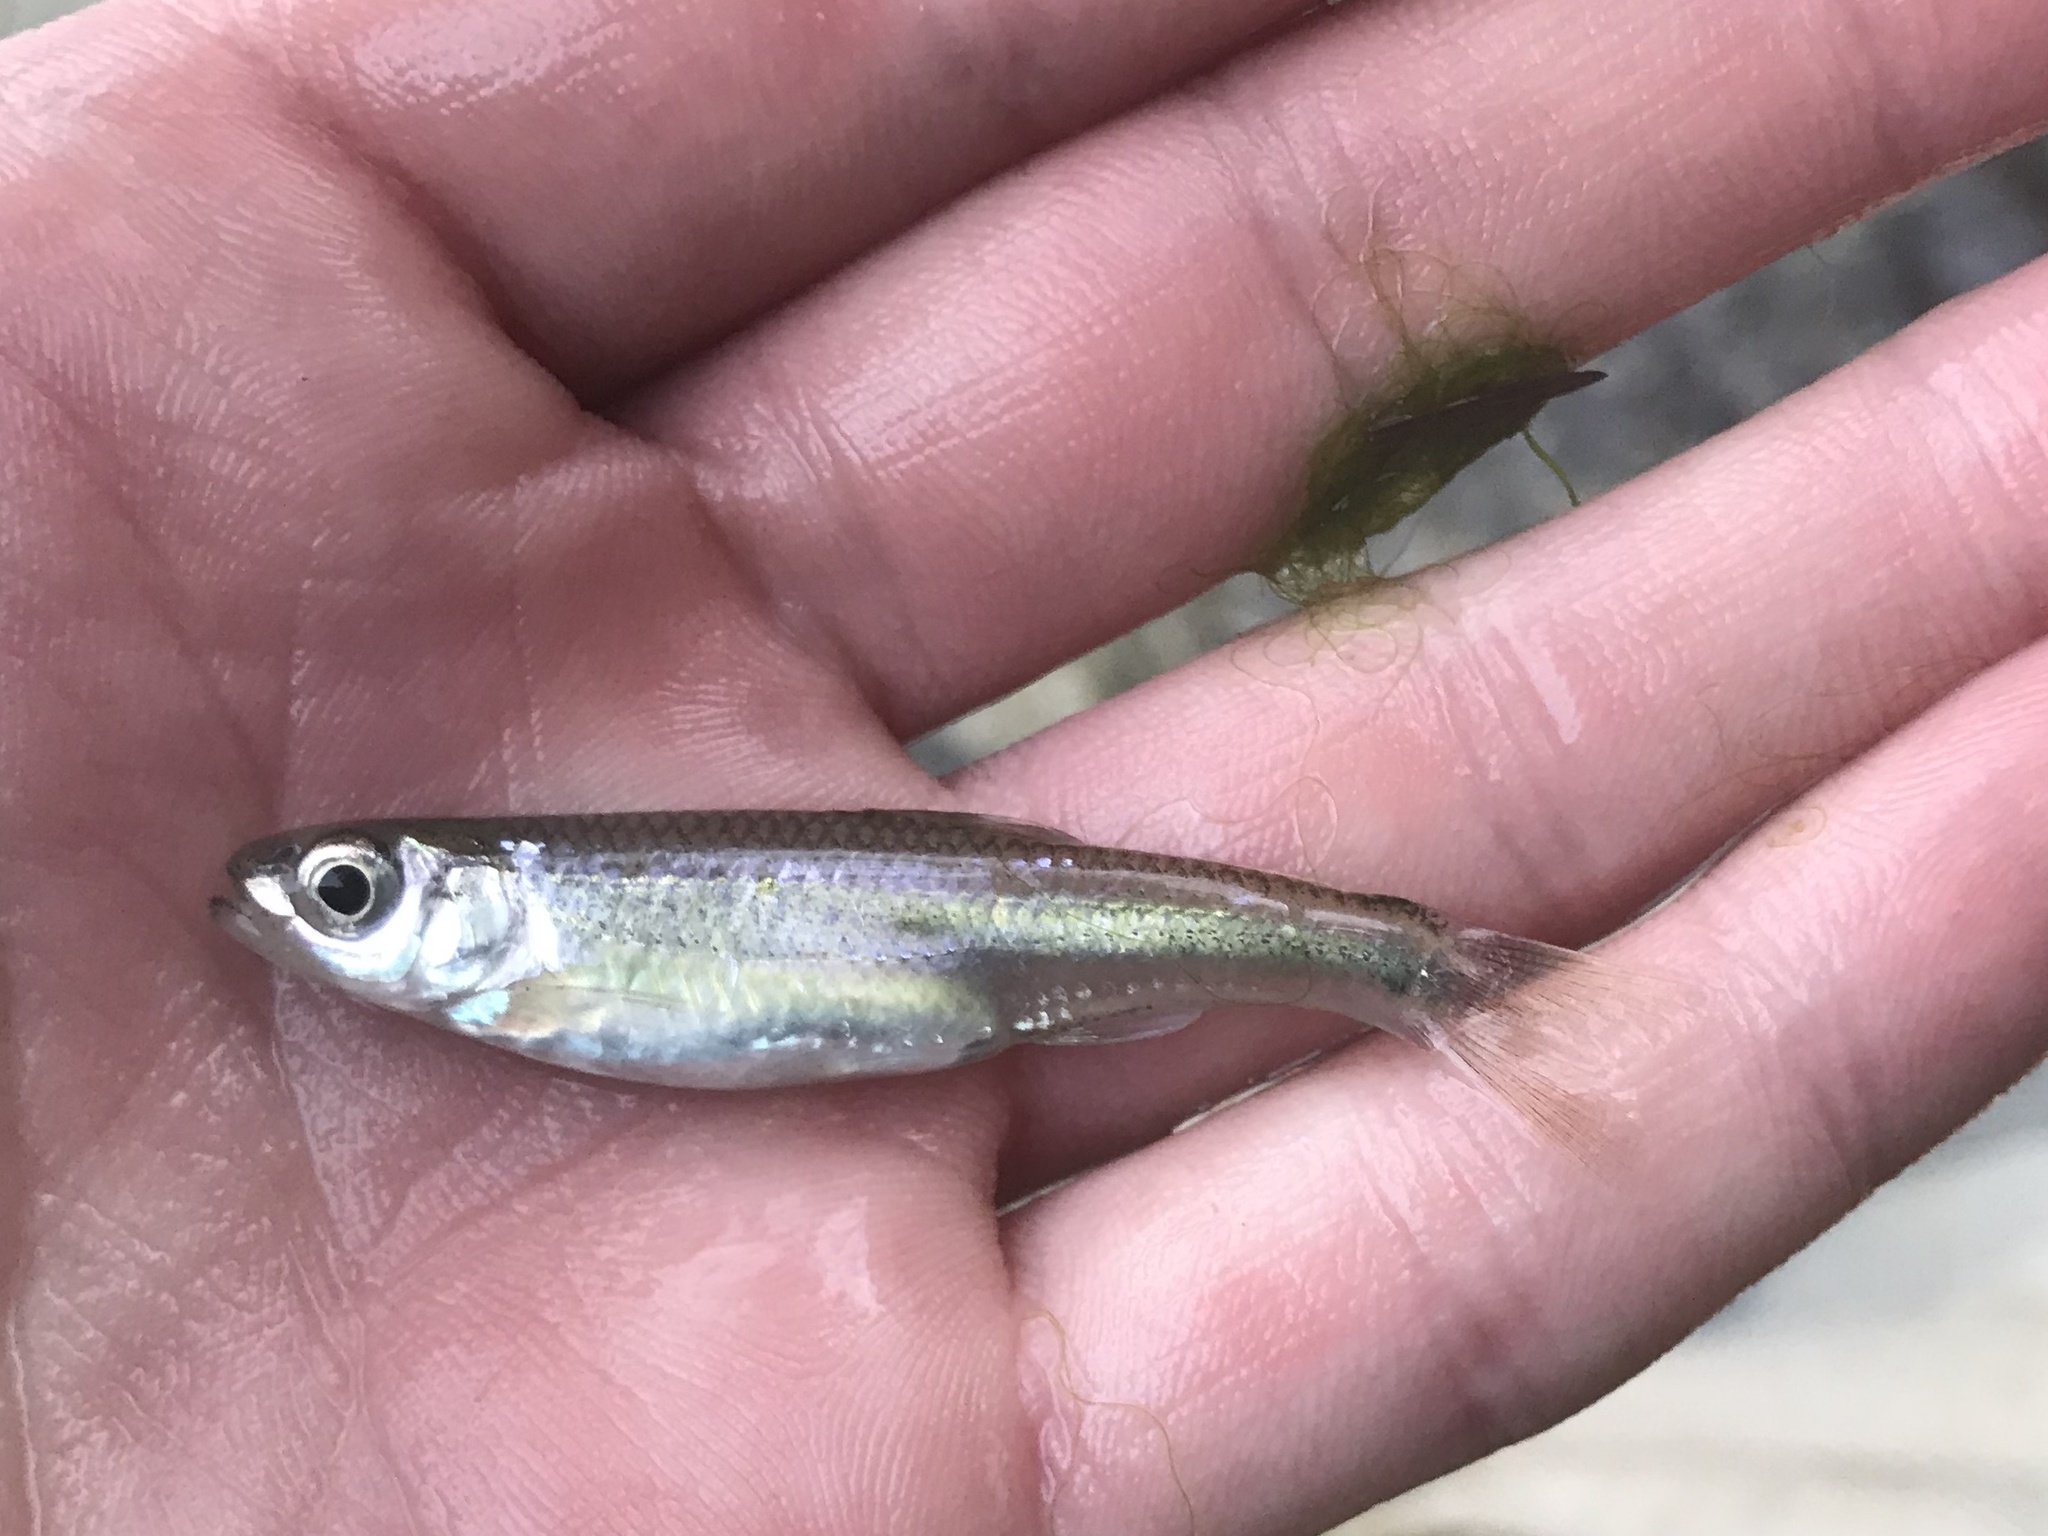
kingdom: Animalia
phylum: Chordata
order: Cypriniformes
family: Cyprinidae
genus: Notropis
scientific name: Notropis amabilis
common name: Texas shiner
